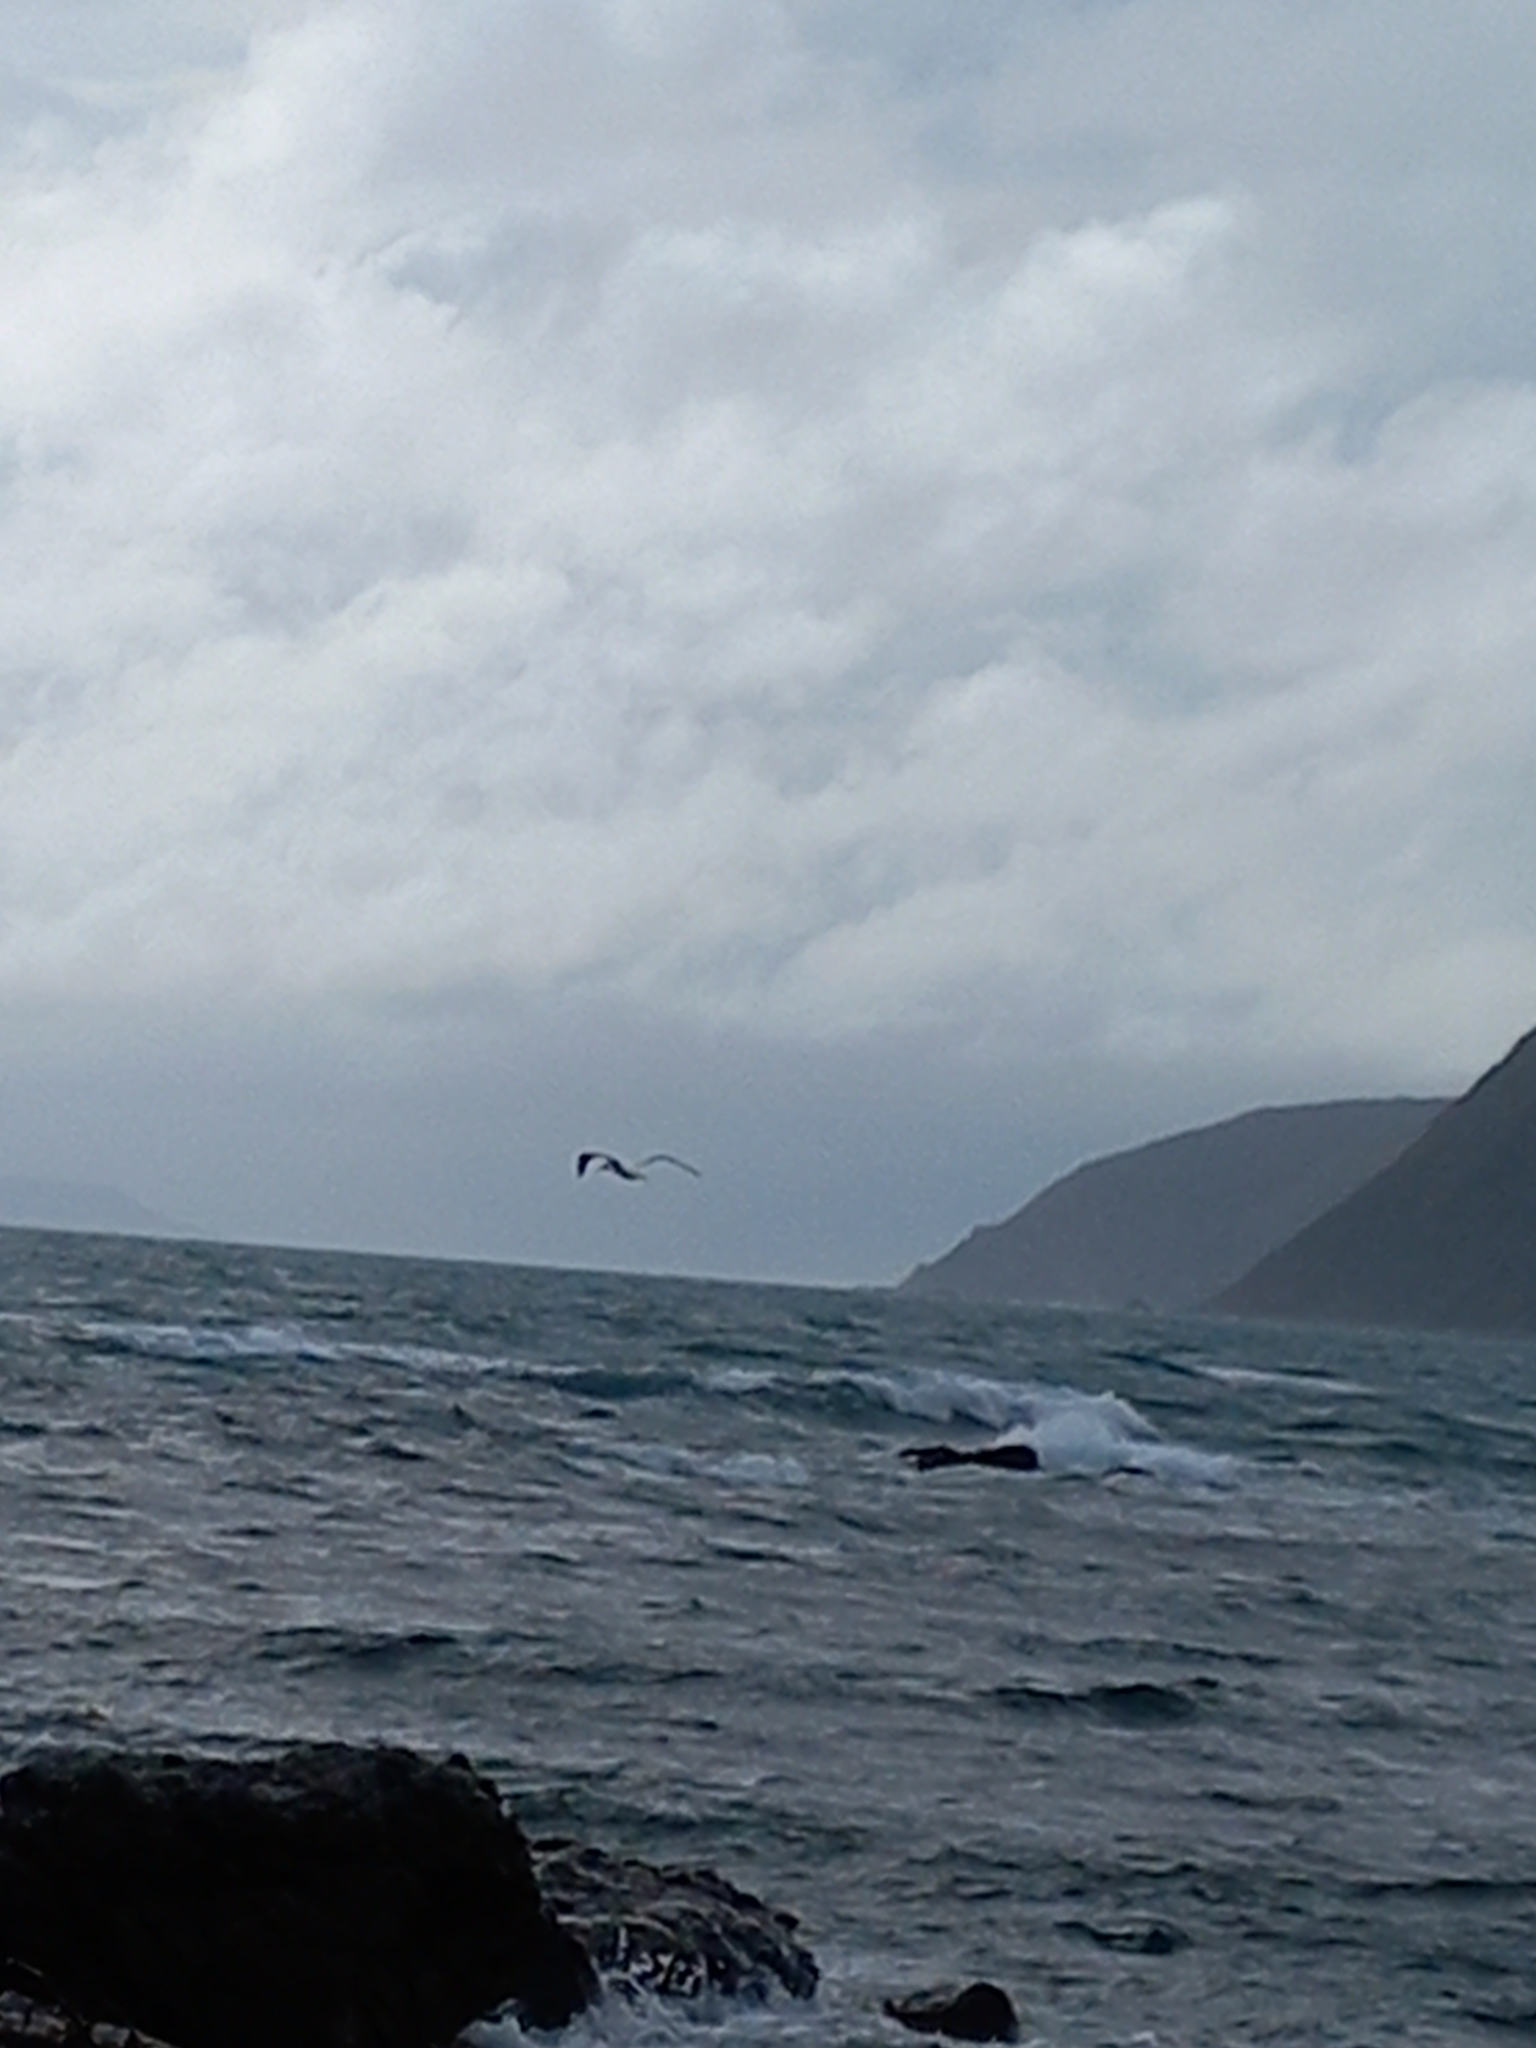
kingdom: Animalia
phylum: Chordata
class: Aves
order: Suliformes
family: Sulidae
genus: Morus
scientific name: Morus serrator
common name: Australasian gannet
